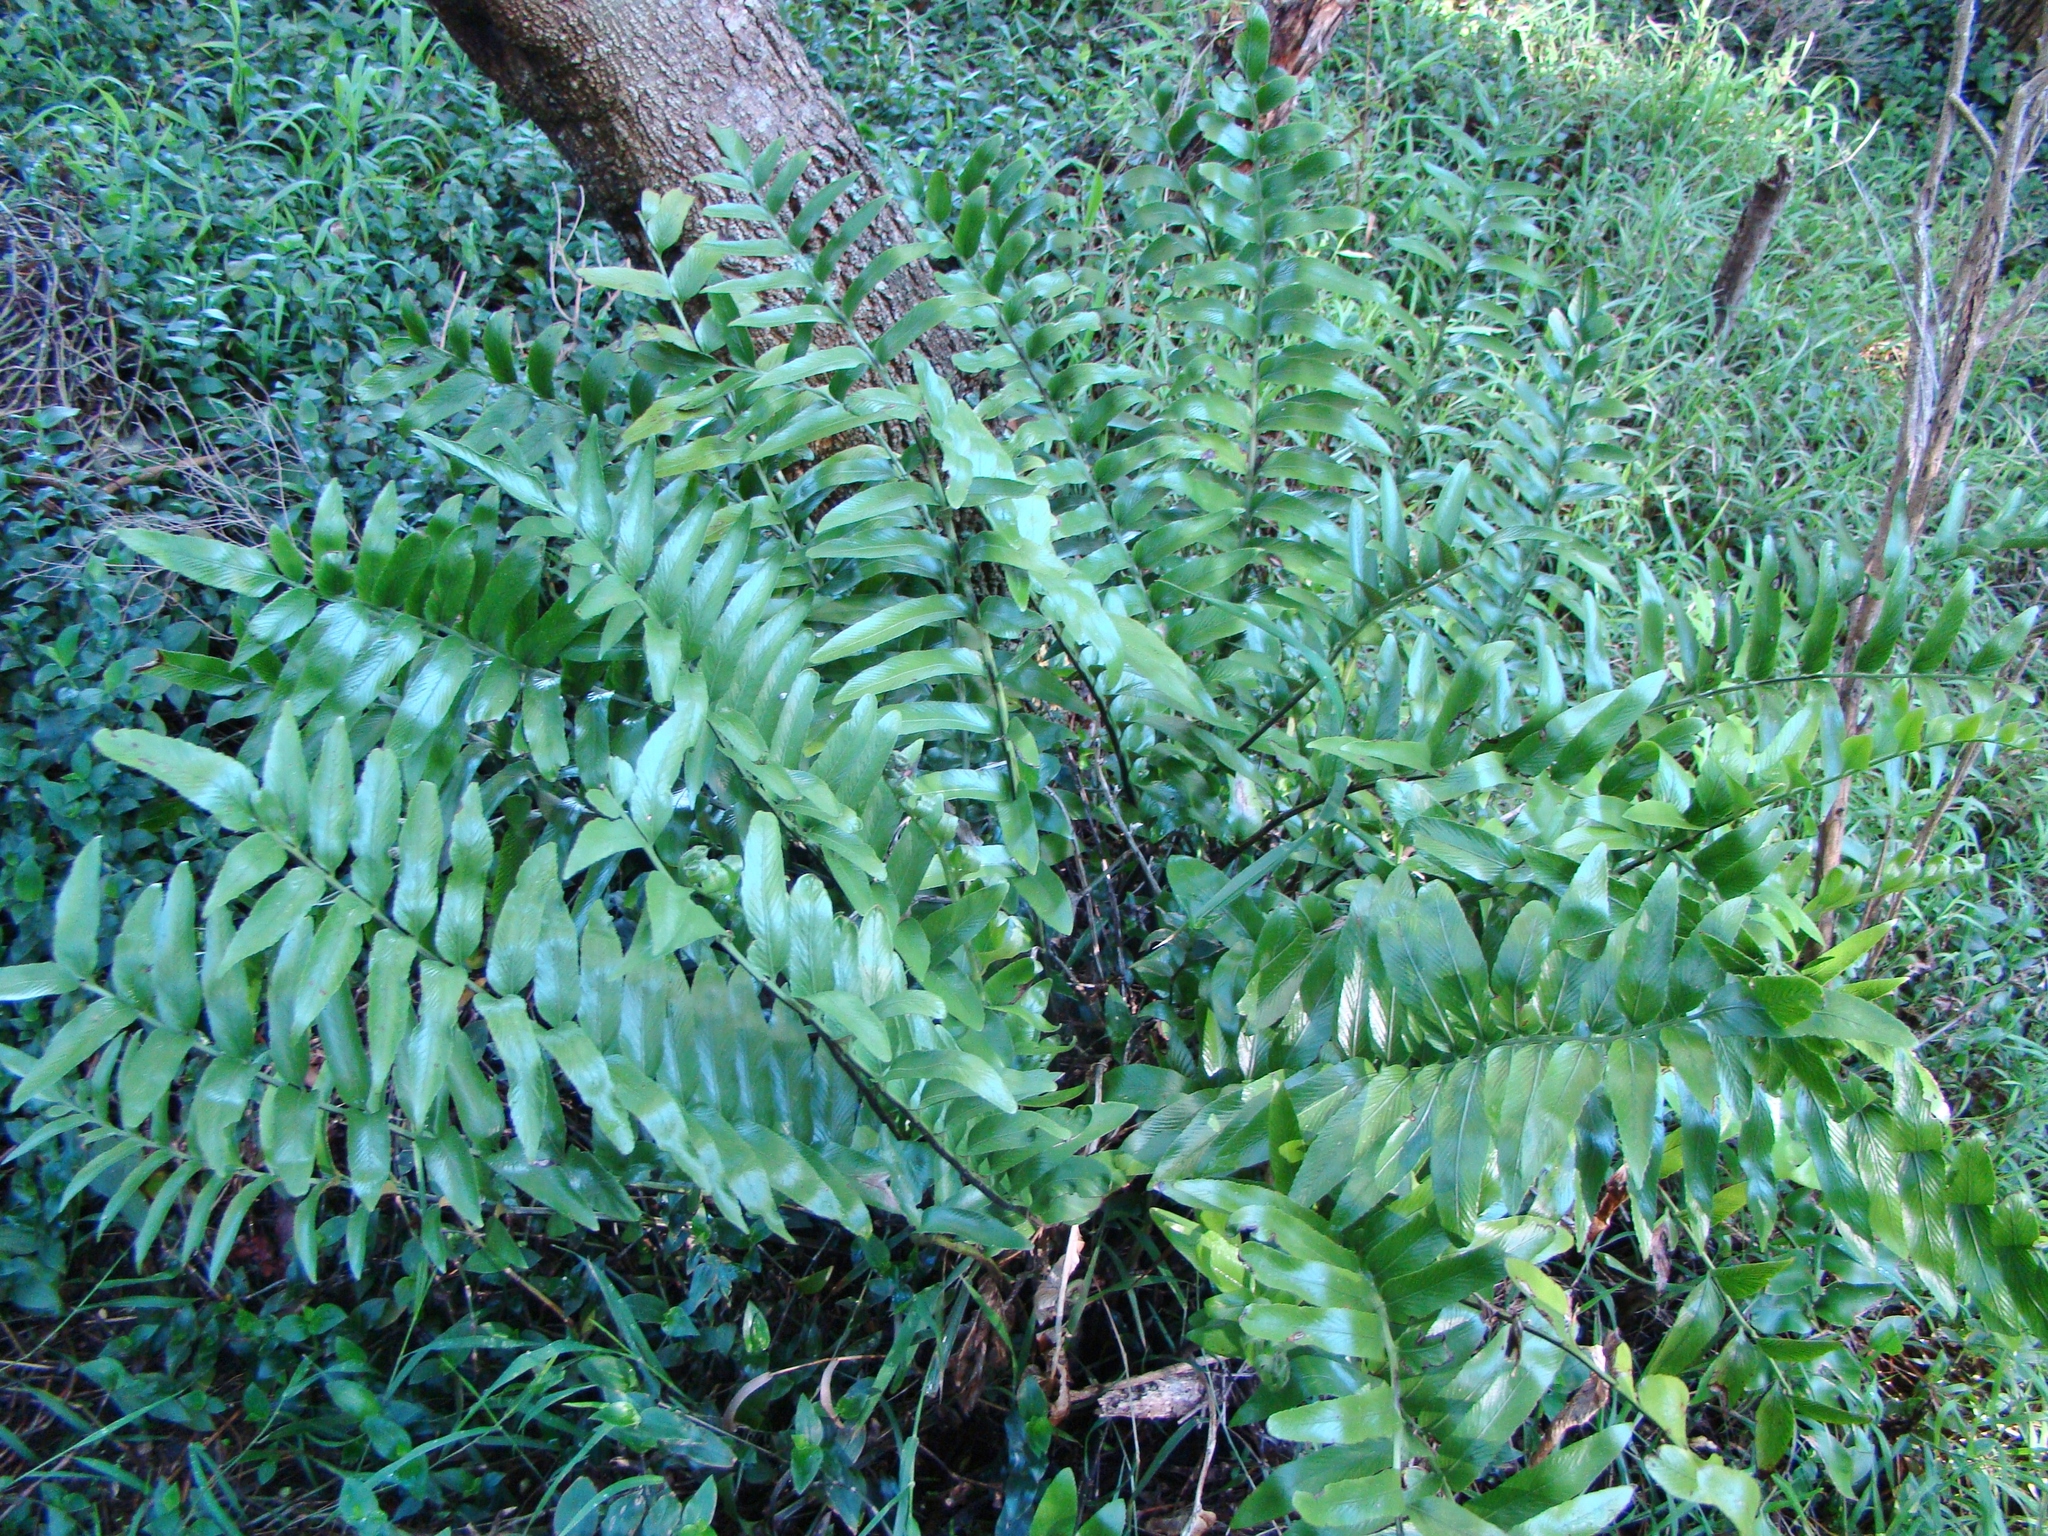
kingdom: Plantae
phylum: Tracheophyta
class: Polypodiopsida
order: Polypodiales
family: Aspleniaceae
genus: Asplenium
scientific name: Asplenium oblongifolium
